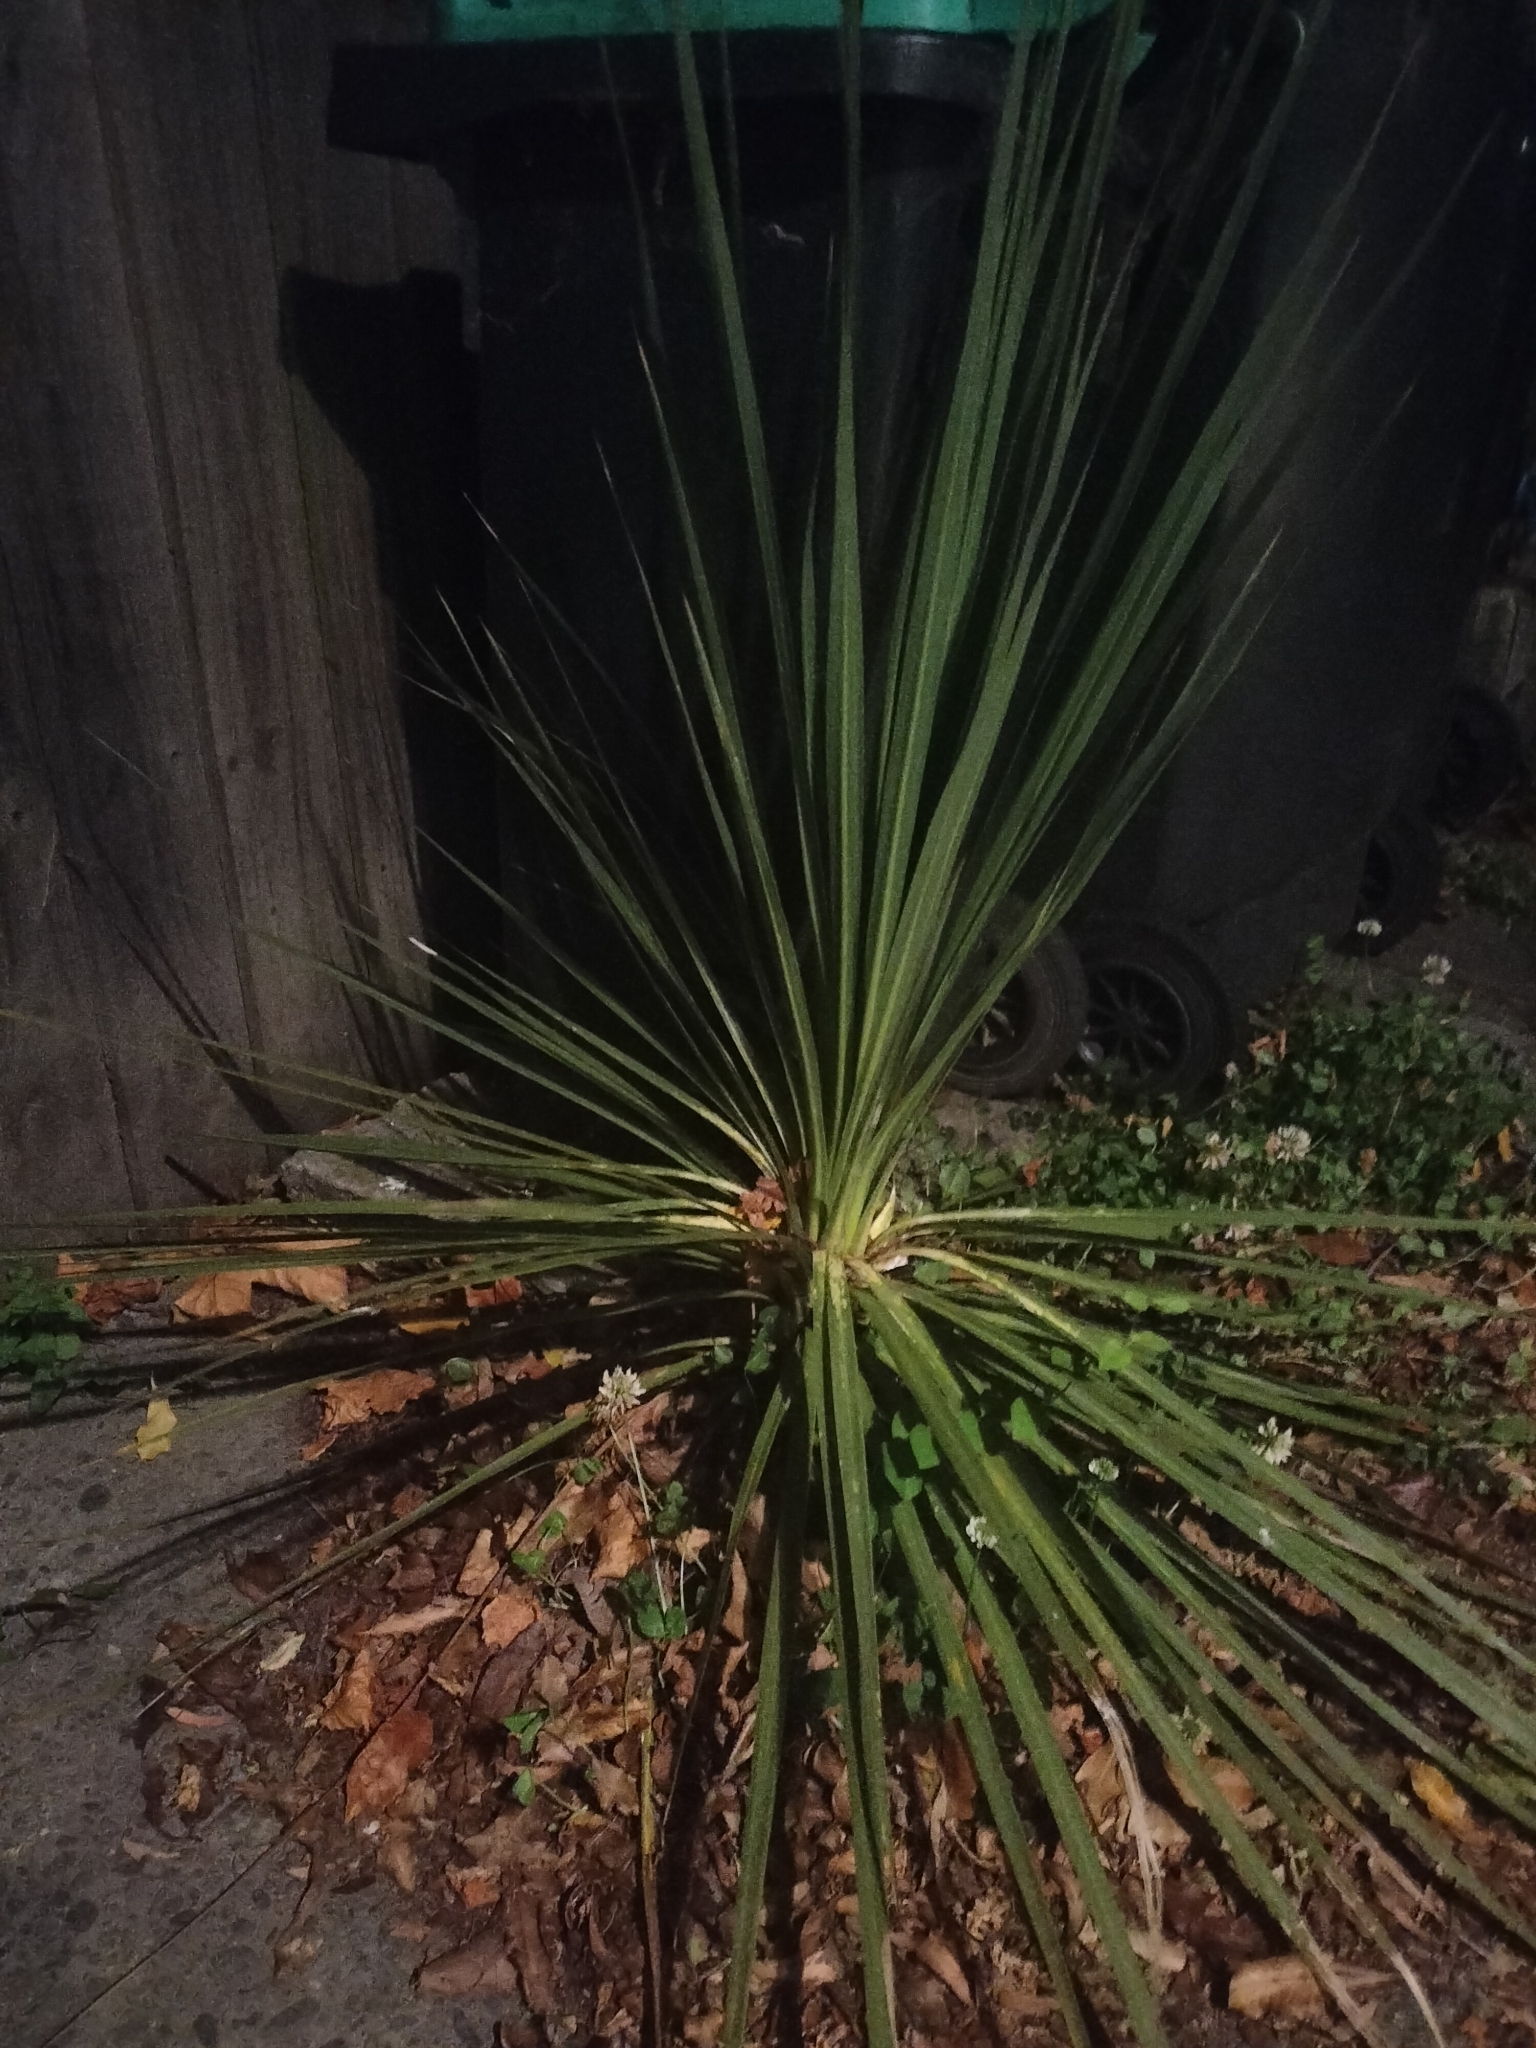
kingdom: Plantae
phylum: Tracheophyta
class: Liliopsida
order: Asparagales
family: Asparagaceae
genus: Cordyline
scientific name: Cordyline australis
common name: Cabbage-palm
